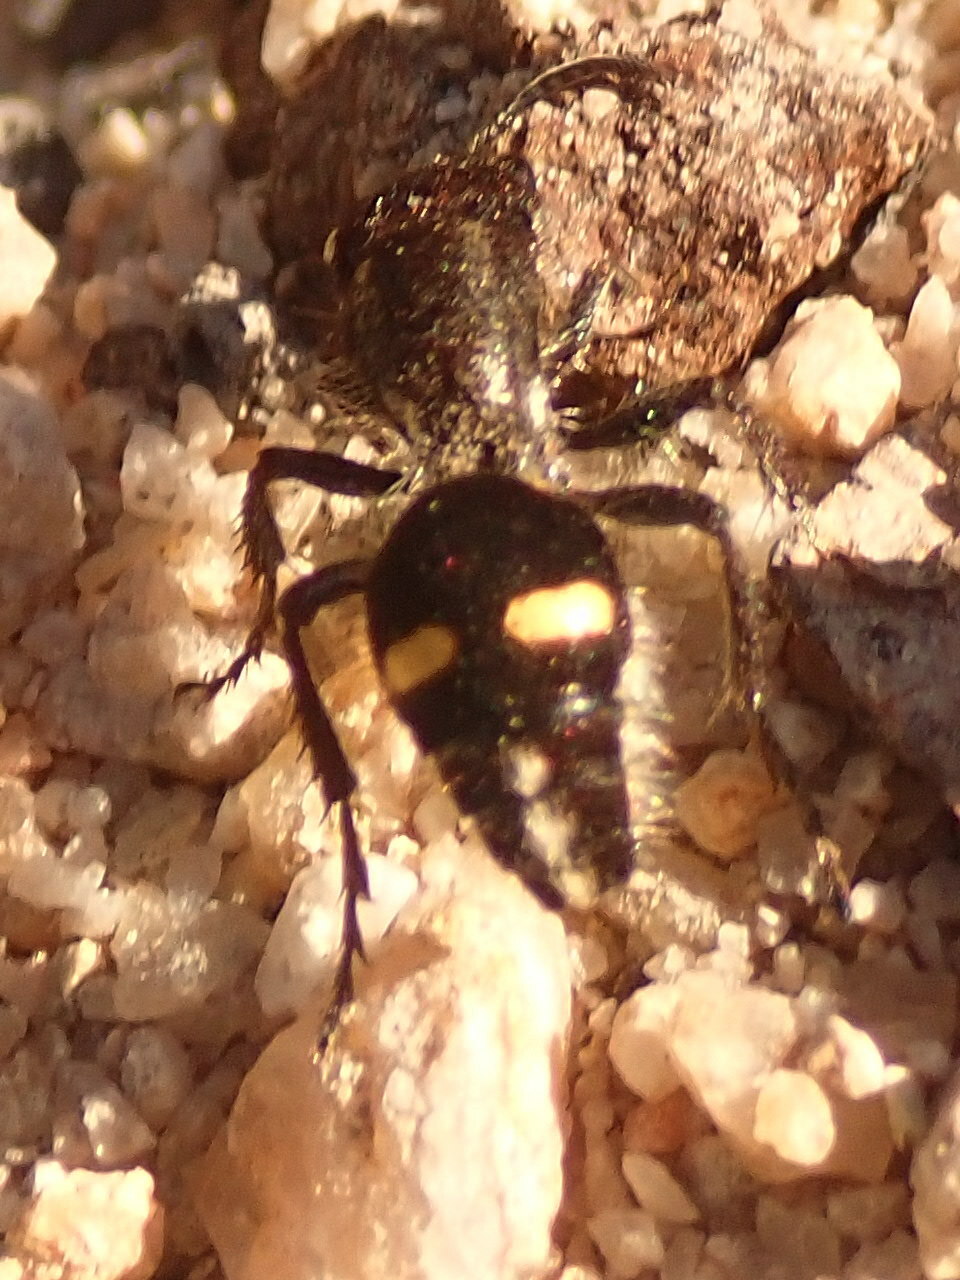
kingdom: Animalia
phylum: Arthropoda
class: Insecta
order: Hymenoptera
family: Mutillidae
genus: Cephalomutilla
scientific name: Cephalomutilla
